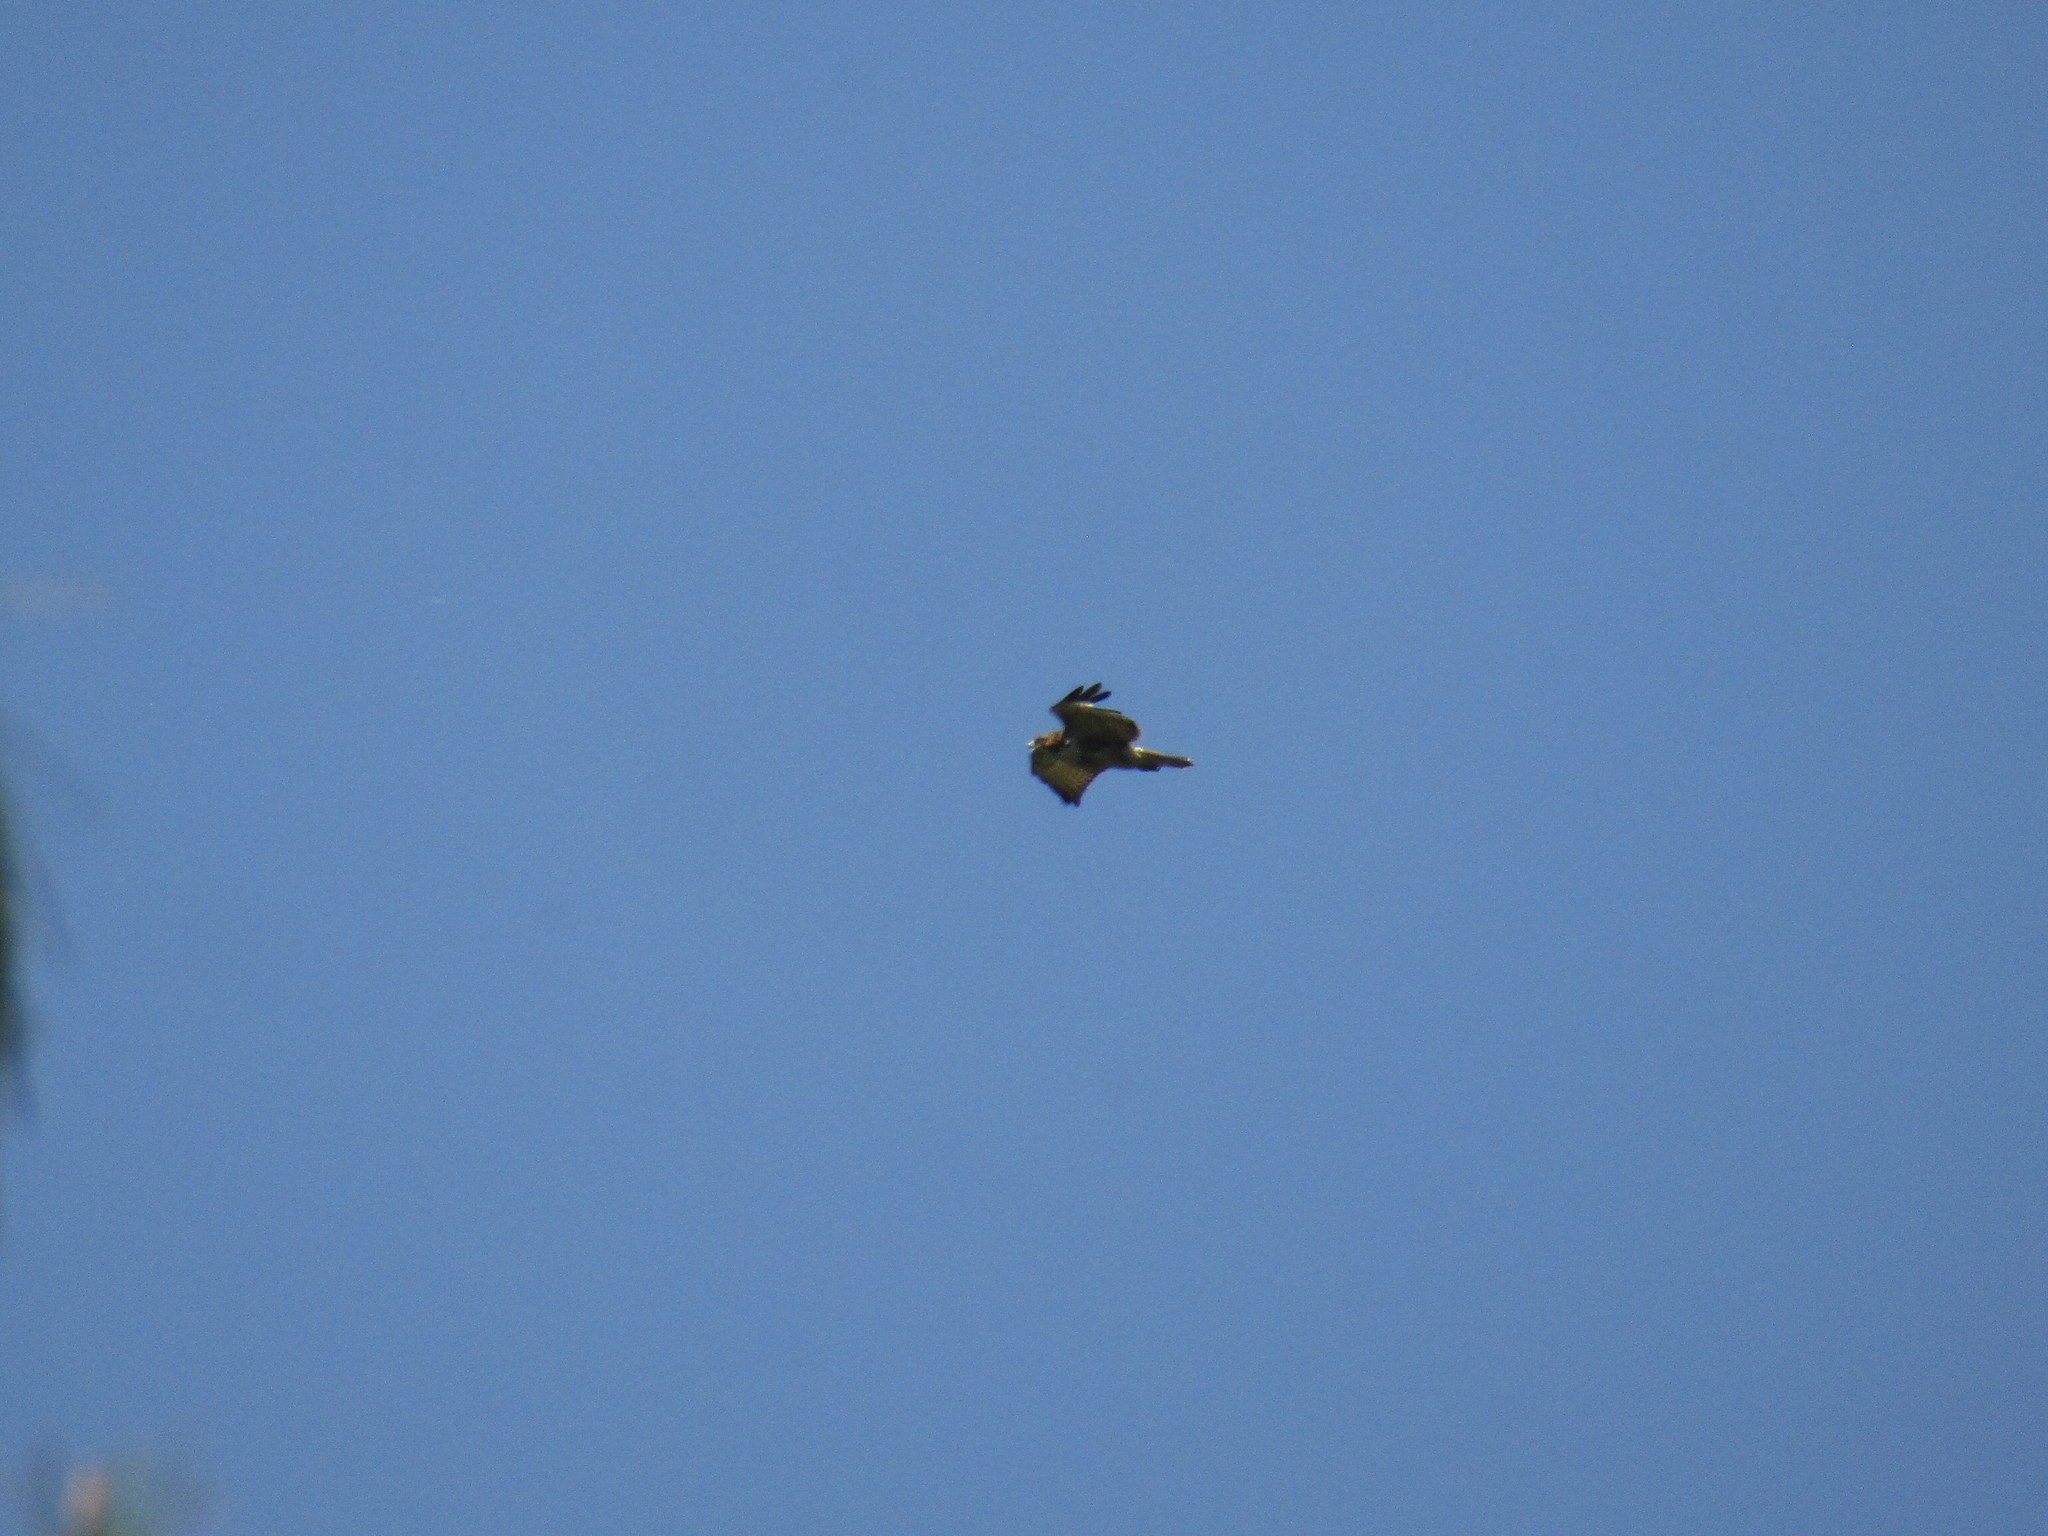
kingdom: Animalia
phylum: Chordata
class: Aves
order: Accipitriformes
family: Accipitridae
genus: Buteo
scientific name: Buteo jamaicensis
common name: Red-tailed hawk
